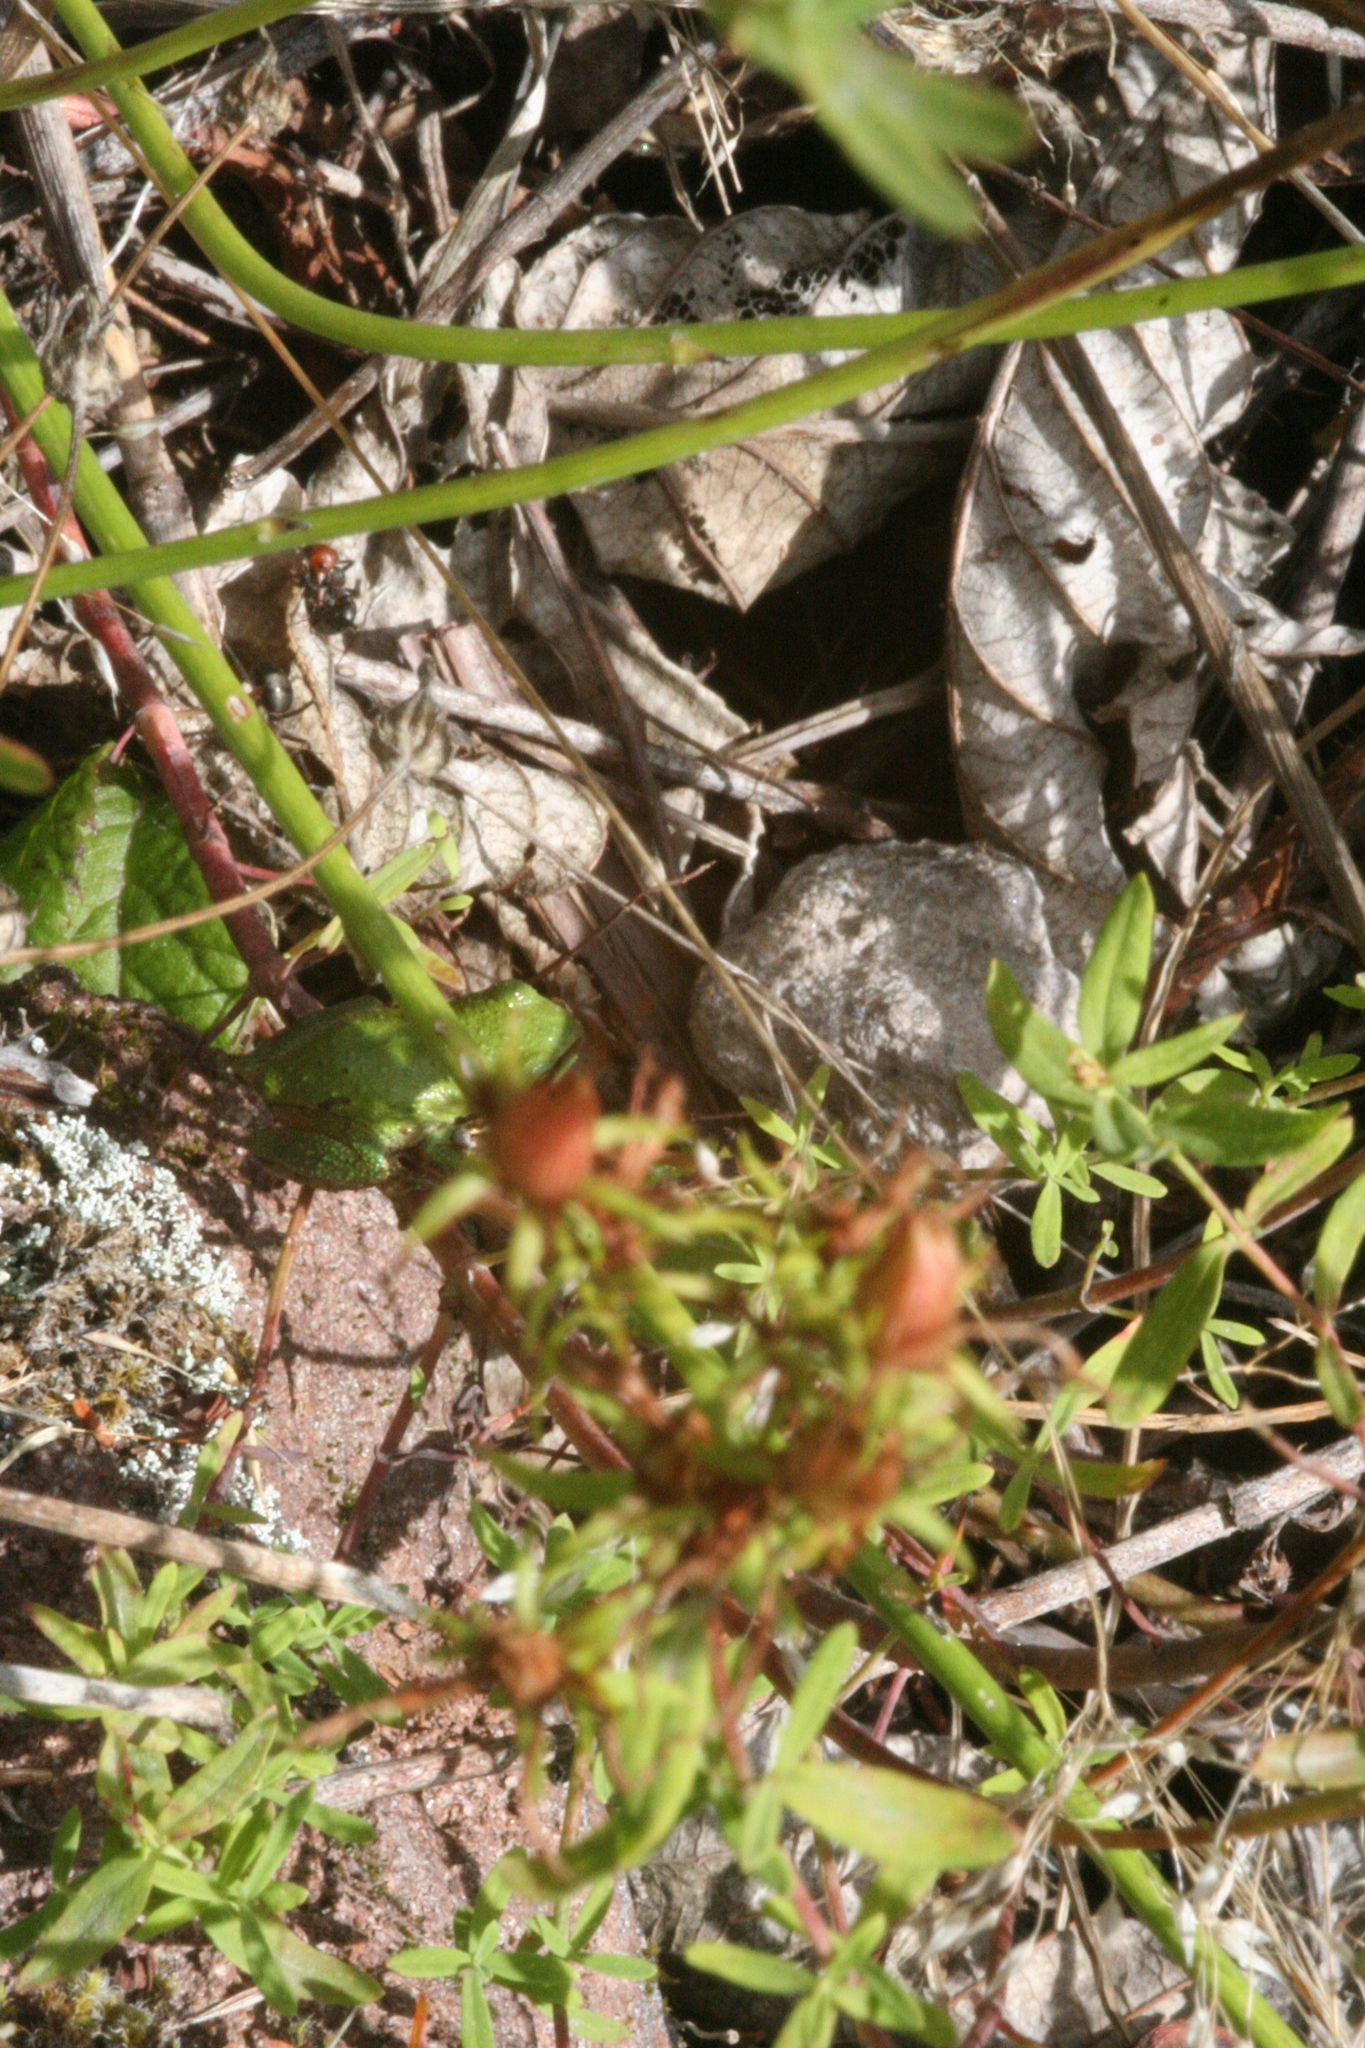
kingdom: Animalia
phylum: Chordata
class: Amphibia
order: Anura
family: Hylidae
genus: Pseudacris
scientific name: Pseudacris regilla
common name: Pacific chorus frog
